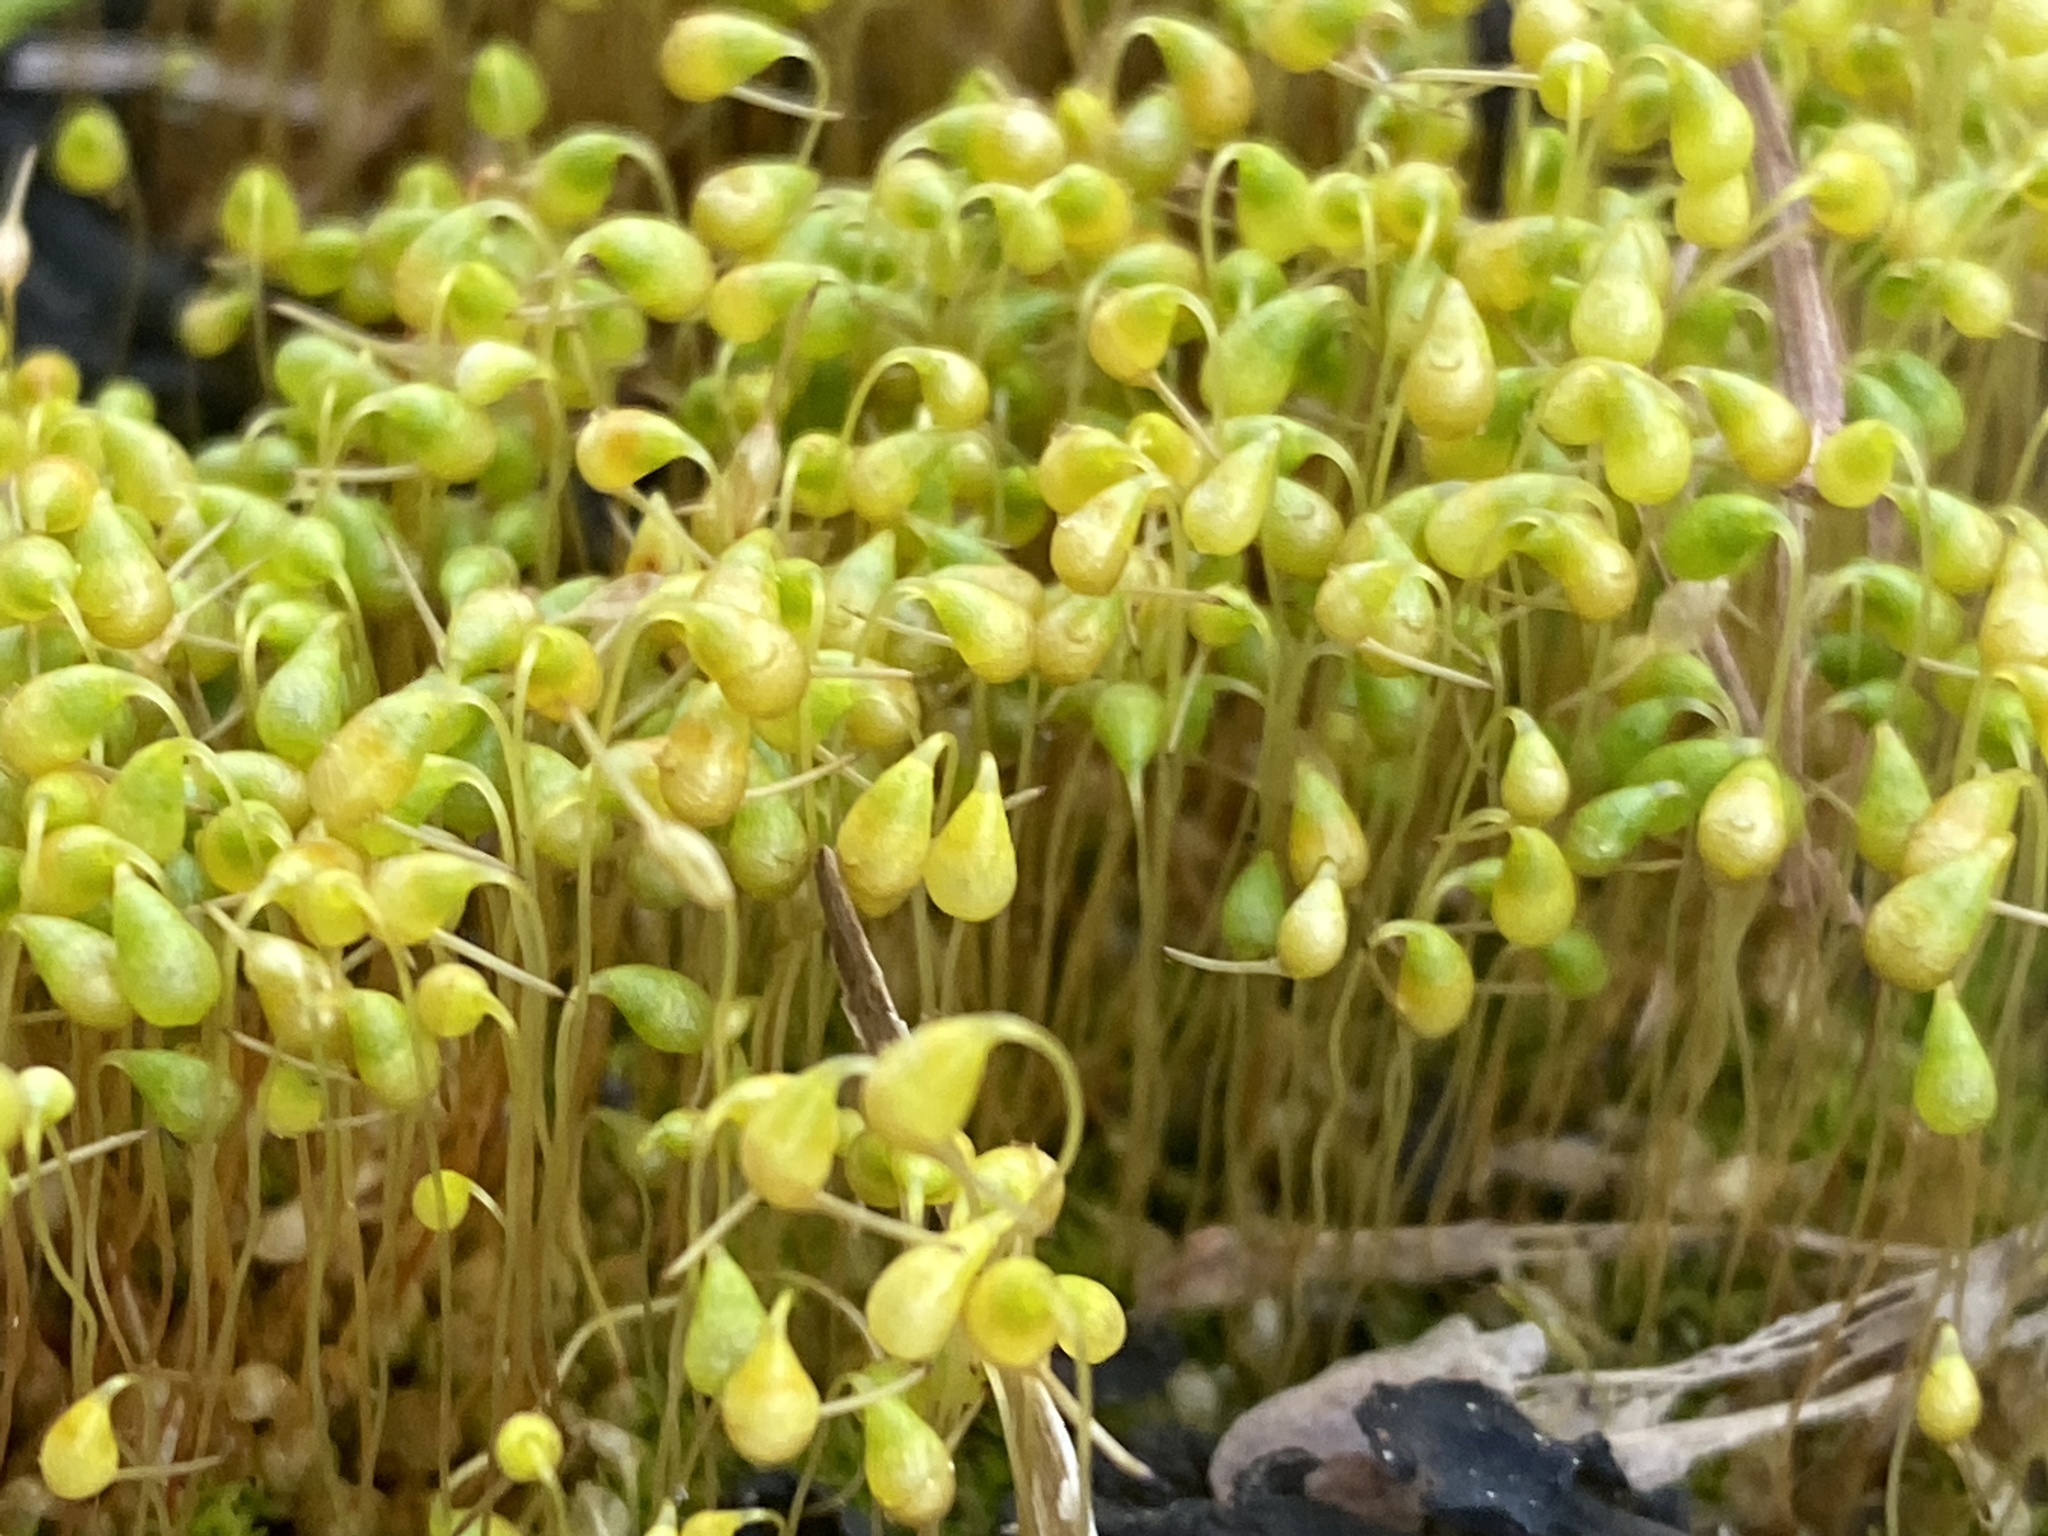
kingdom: Plantae
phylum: Bryophyta
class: Bryopsida
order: Funariales
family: Funariaceae
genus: Funaria
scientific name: Funaria hygrometrica
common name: Common cord moss
